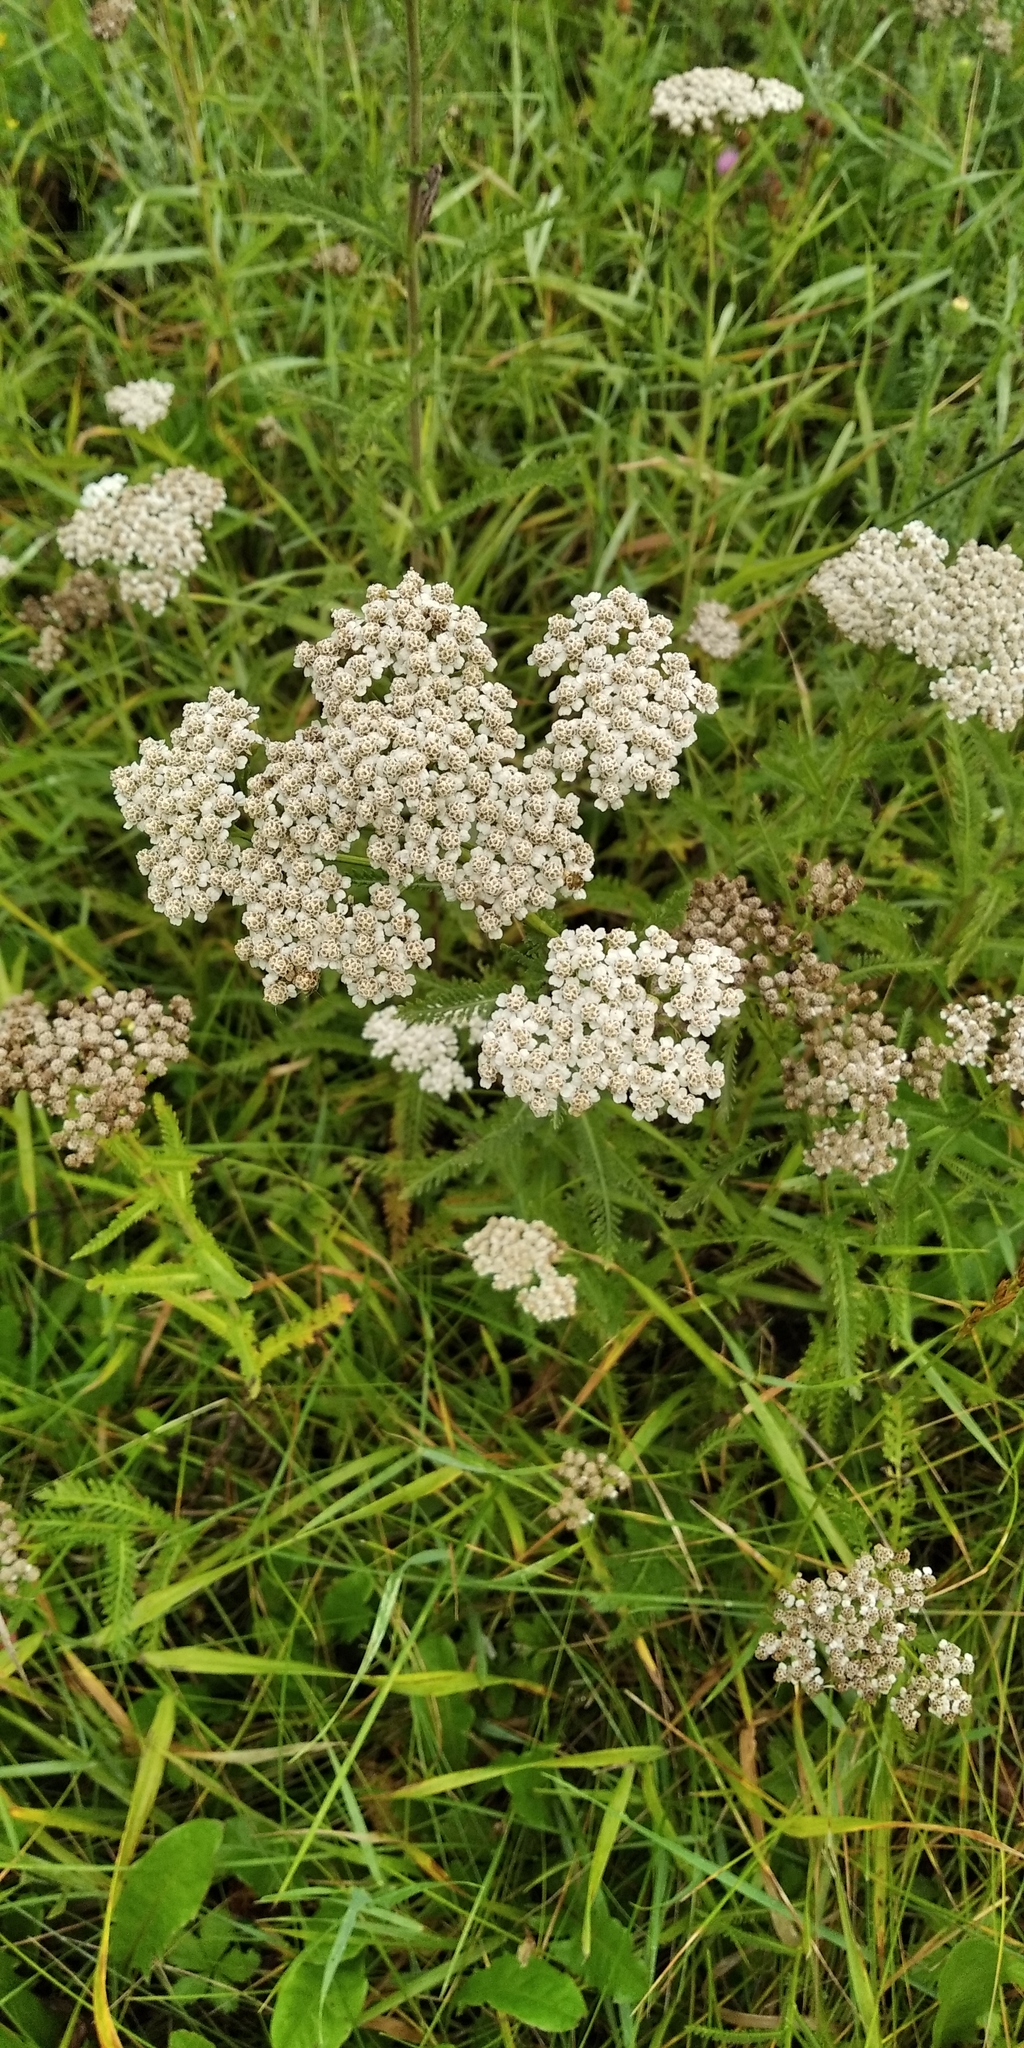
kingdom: Plantae
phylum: Tracheophyta
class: Magnoliopsida
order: Asterales
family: Asteraceae
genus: Achillea
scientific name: Achillea millefolium
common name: Yarrow
